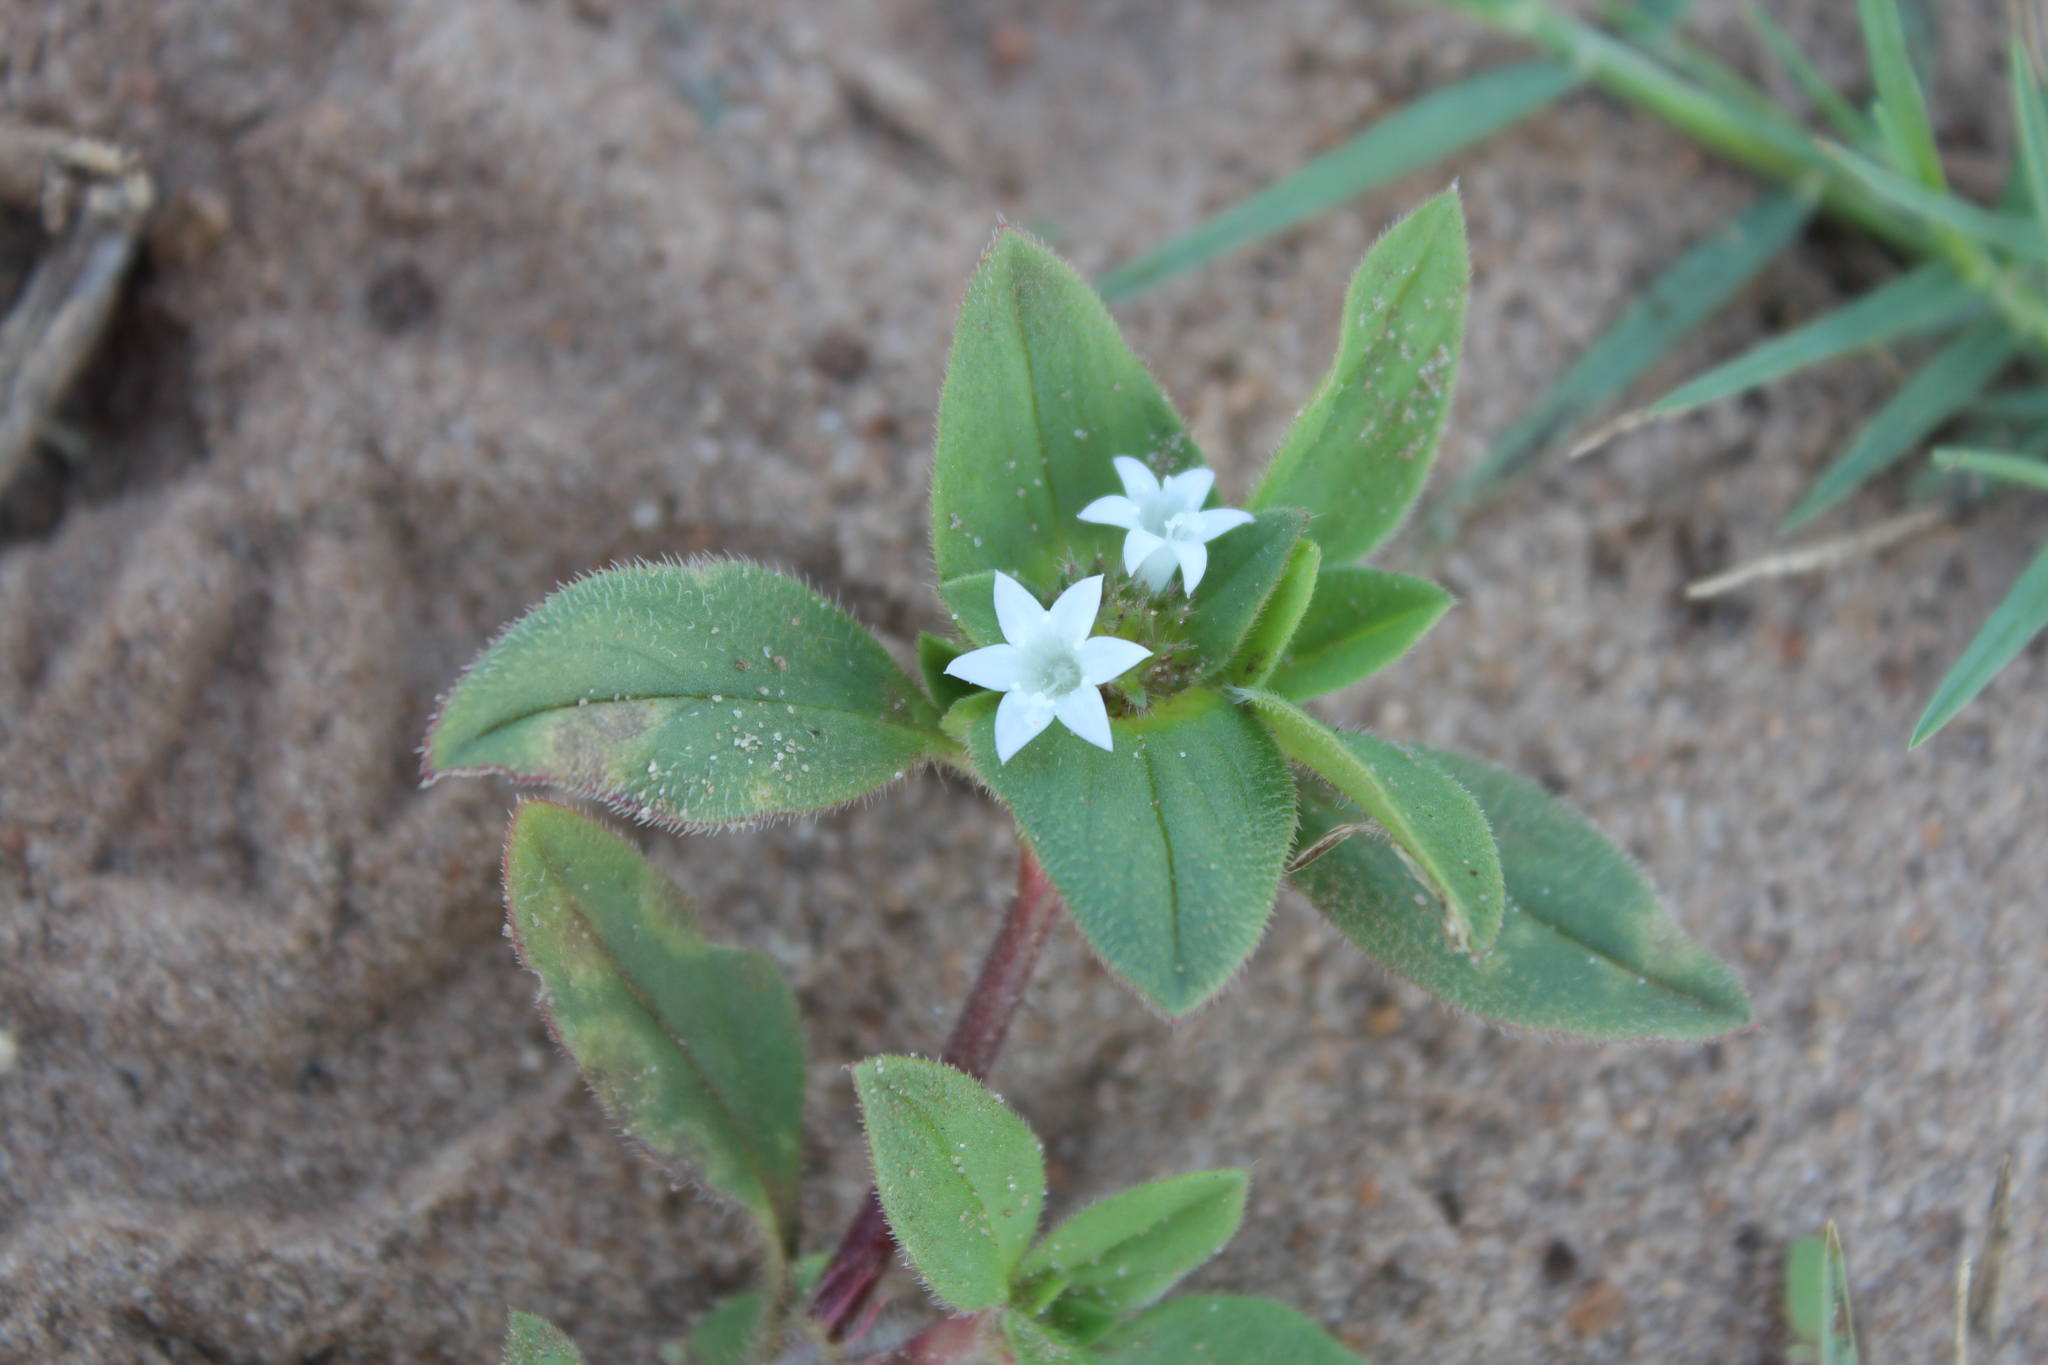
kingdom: Plantae
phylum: Tracheophyta
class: Magnoliopsida
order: Gentianales
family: Rubiaceae
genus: Richardia
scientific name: Richardia brasiliensis
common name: Tropical mexican clover
